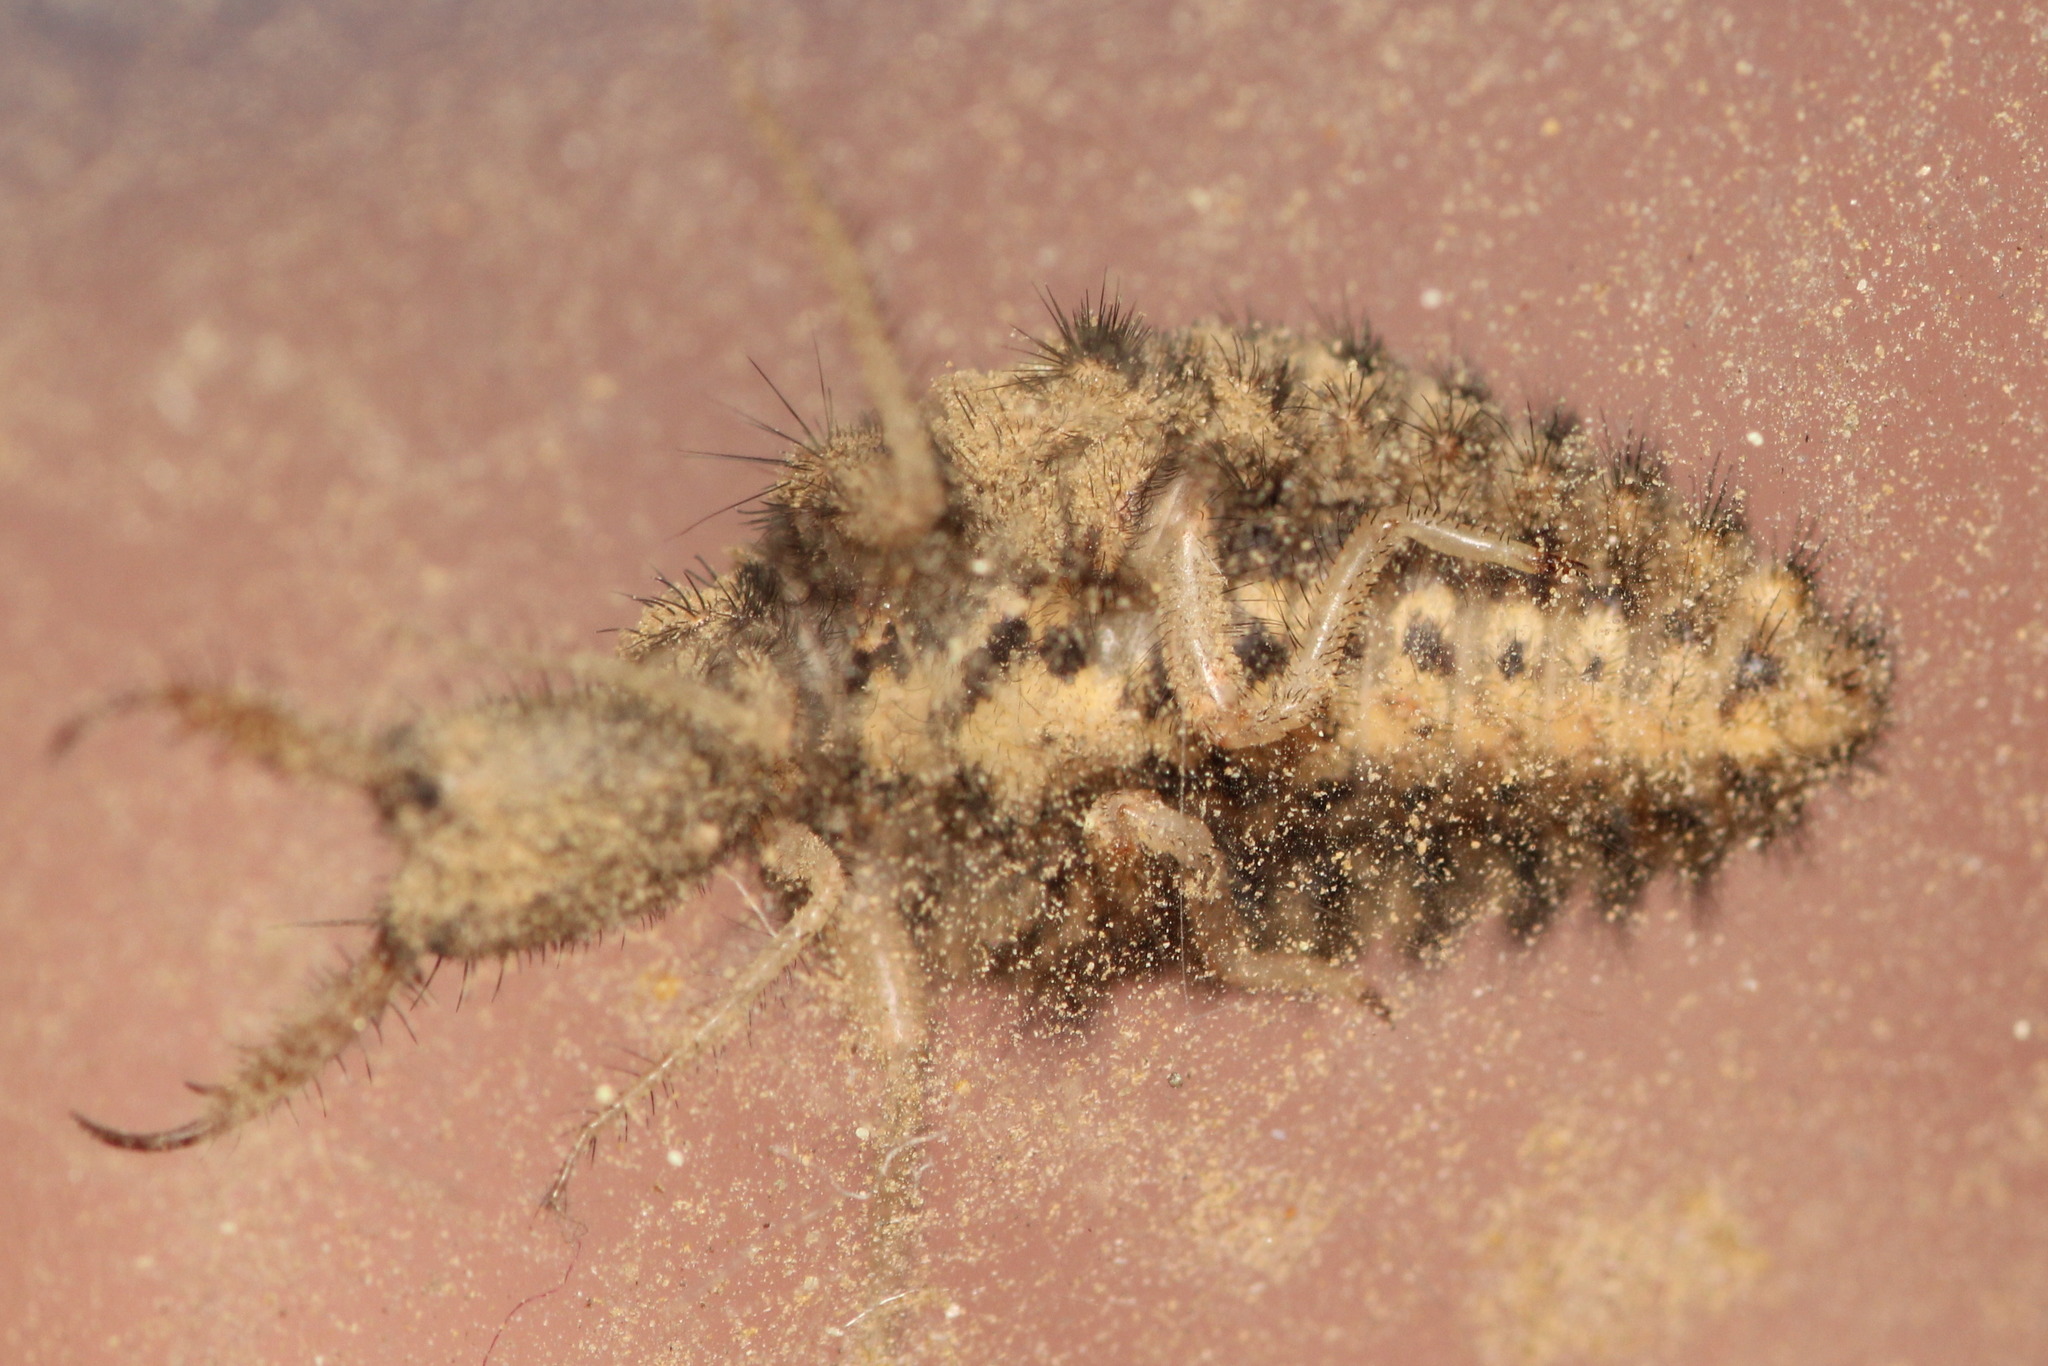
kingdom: Animalia
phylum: Arthropoda
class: Insecta
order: Neuroptera
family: Myrmeleontidae
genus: Euroleon
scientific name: Euroleon nostras
